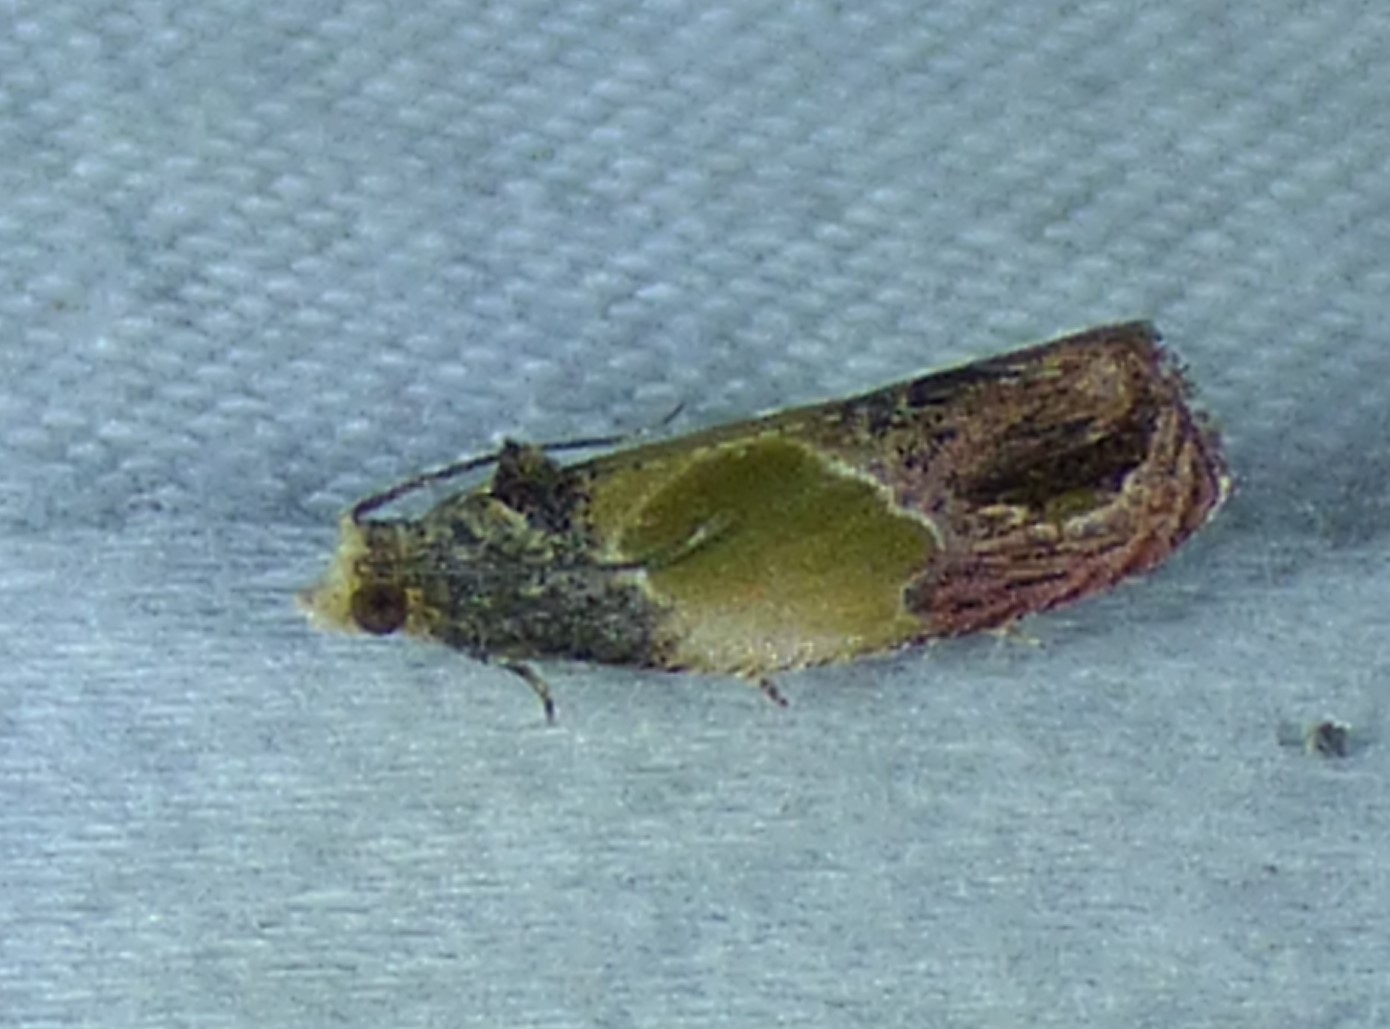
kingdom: Animalia
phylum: Arthropoda
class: Insecta
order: Lepidoptera
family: Tortricidae
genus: Eumarozia
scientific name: Eumarozia malachitana
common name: Sculptured moth
